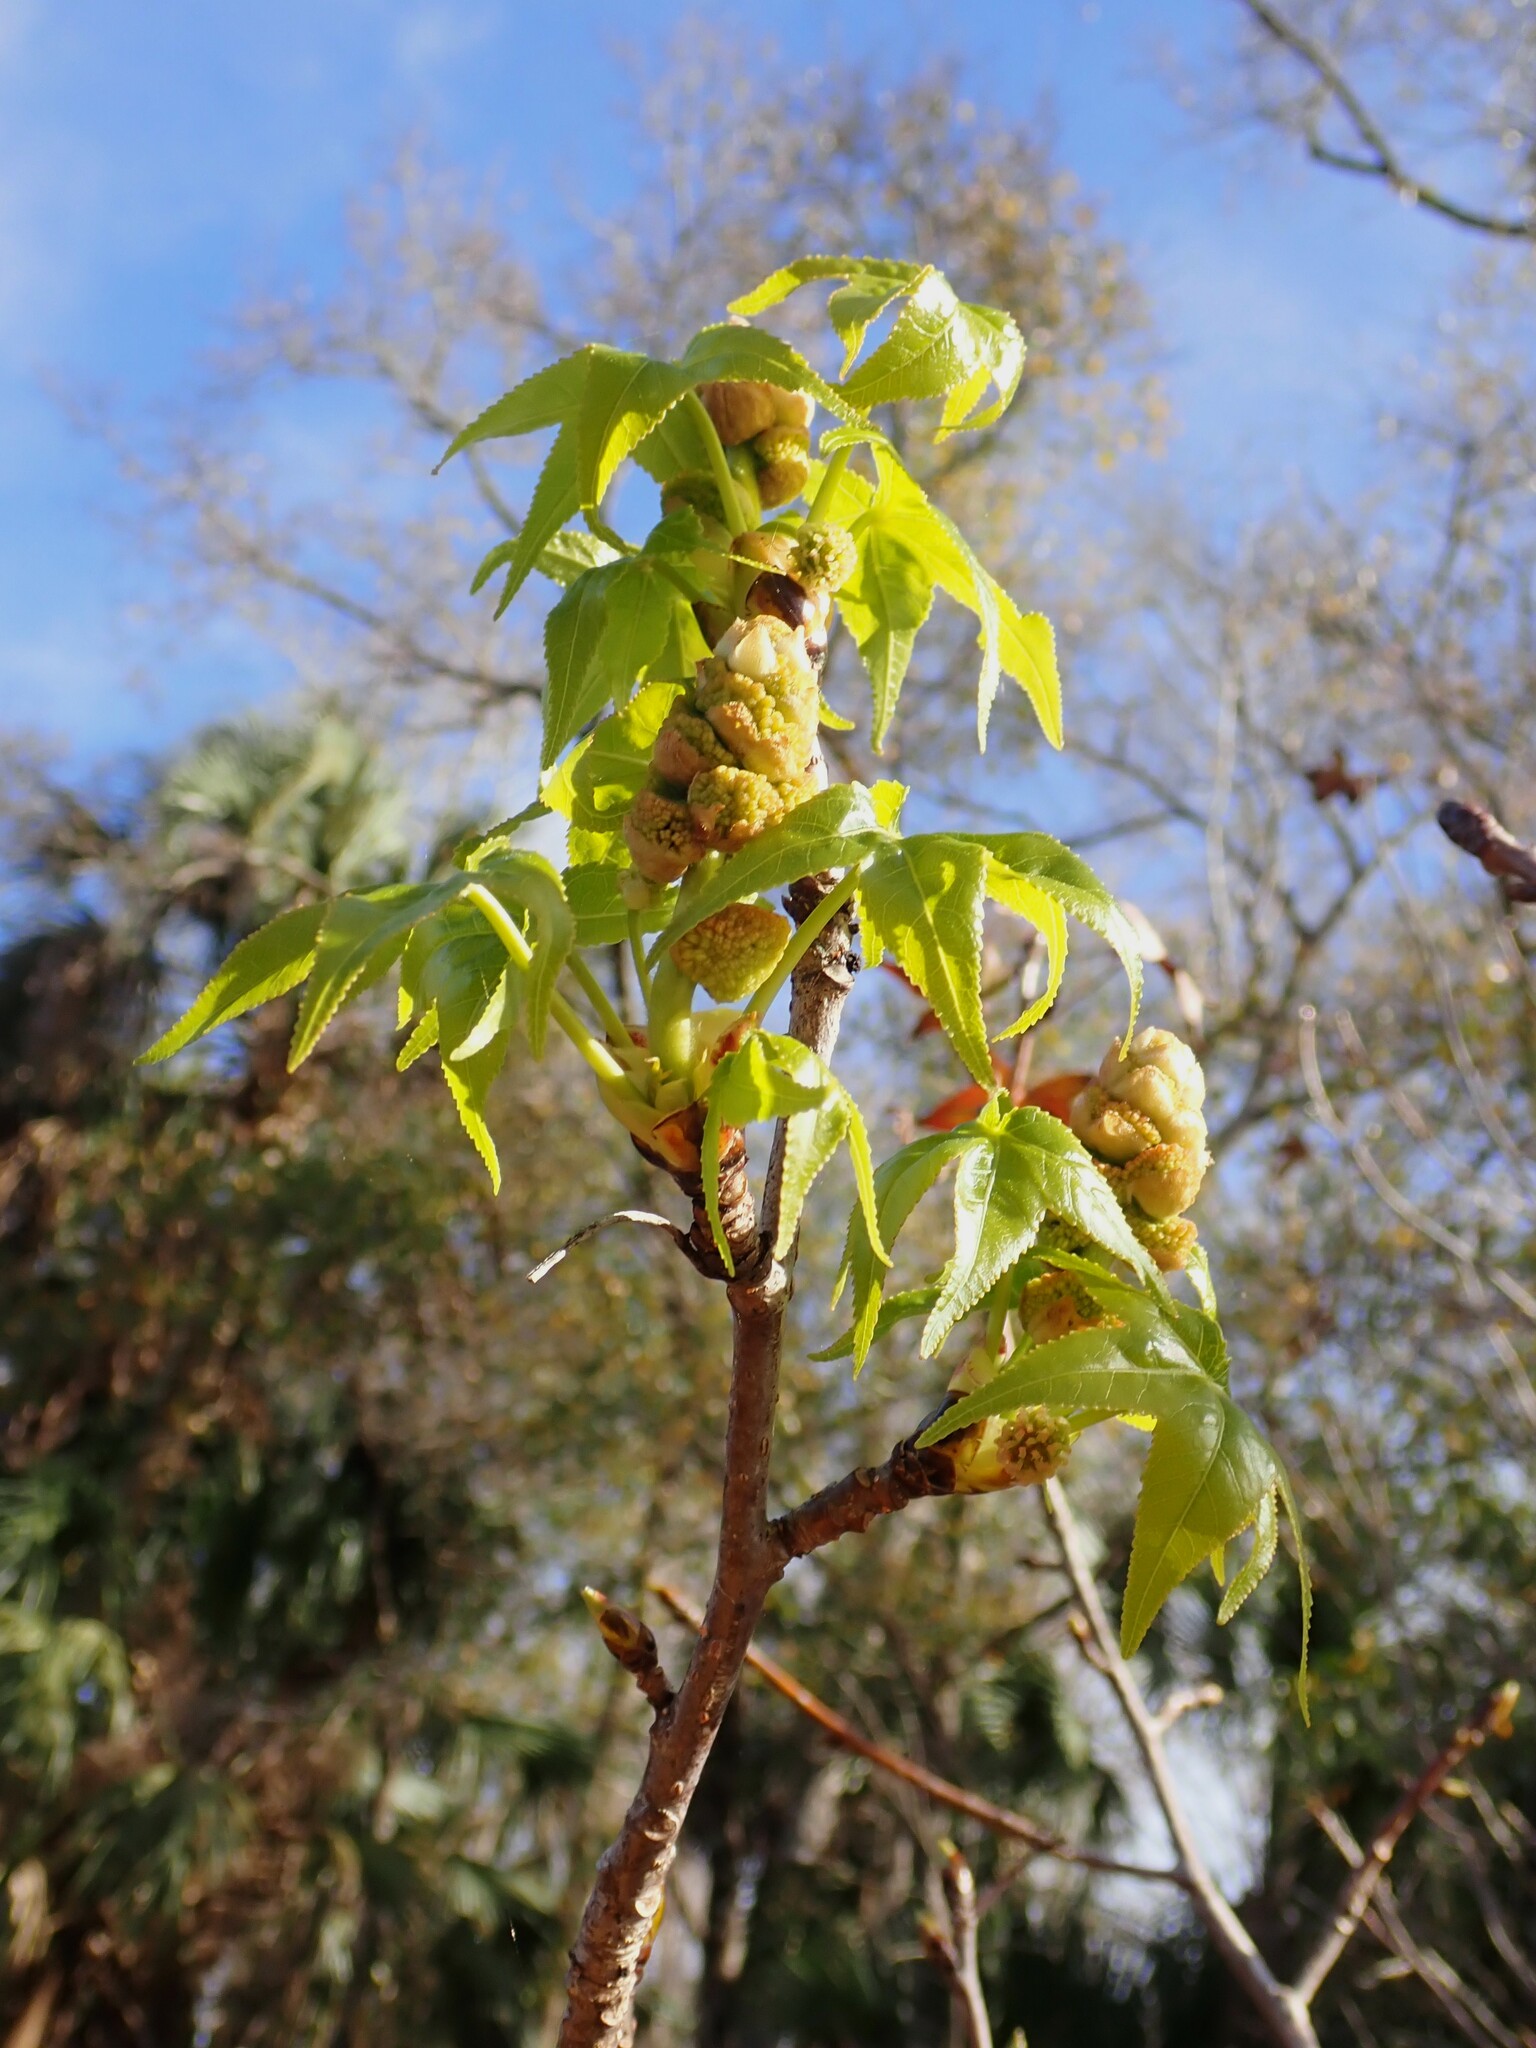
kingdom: Plantae
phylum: Tracheophyta
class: Magnoliopsida
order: Saxifragales
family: Altingiaceae
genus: Liquidambar
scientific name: Liquidambar styraciflua
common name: Sweet gum
